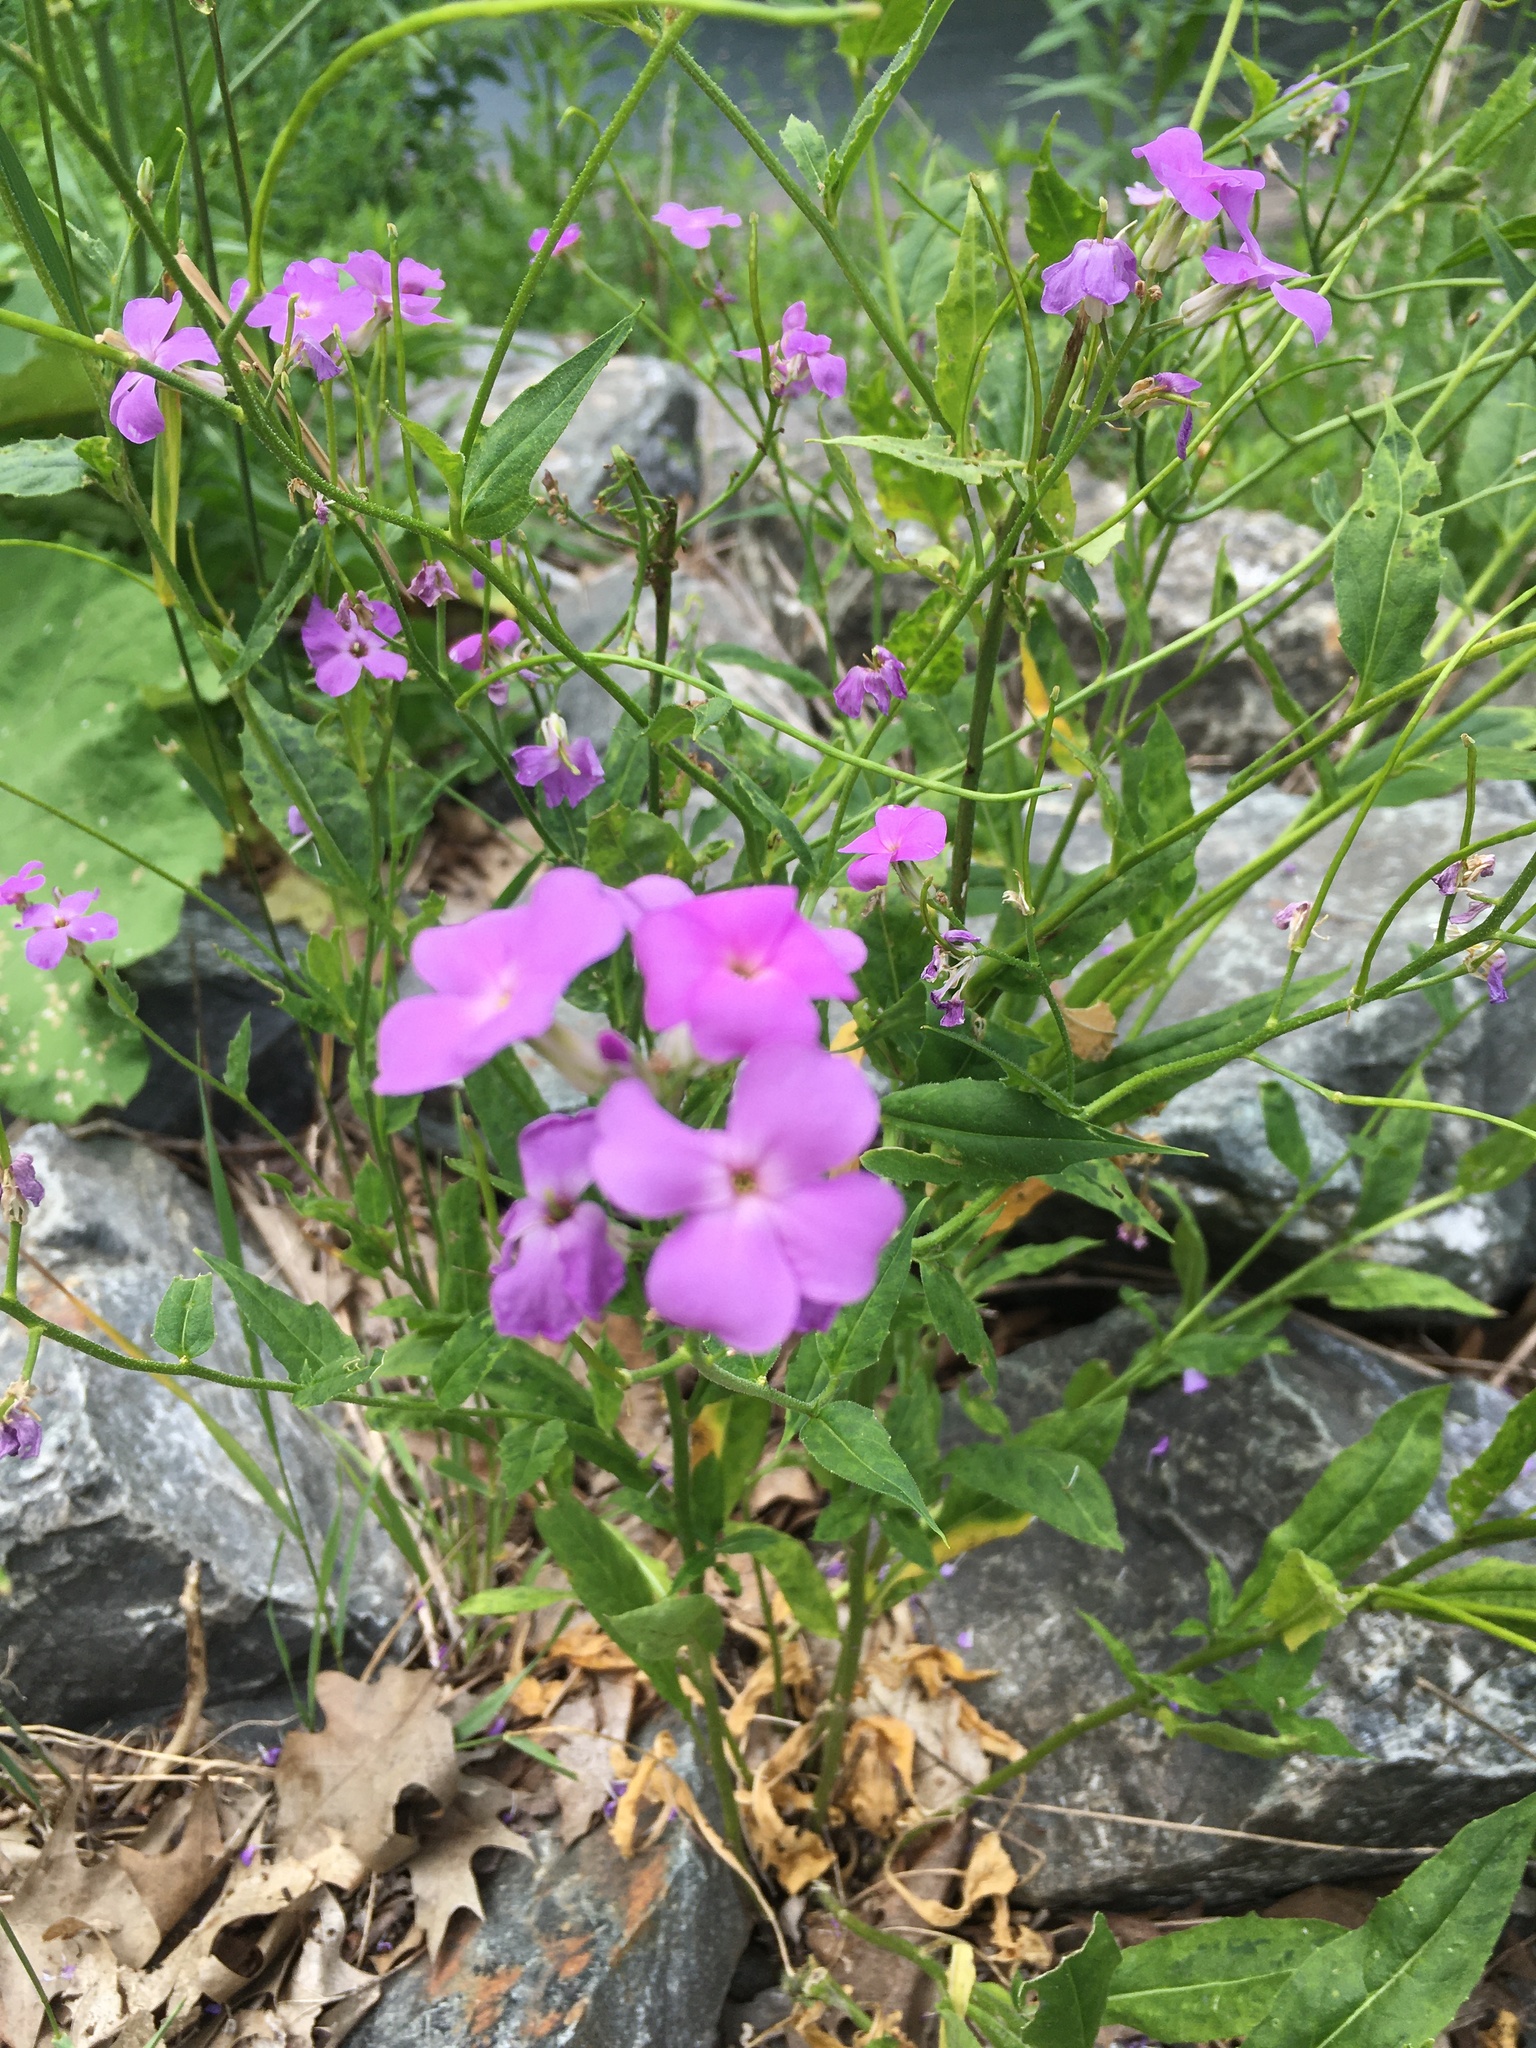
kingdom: Plantae
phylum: Tracheophyta
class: Magnoliopsida
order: Brassicales
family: Brassicaceae
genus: Hesperis
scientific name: Hesperis matronalis
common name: Dame's-violet
